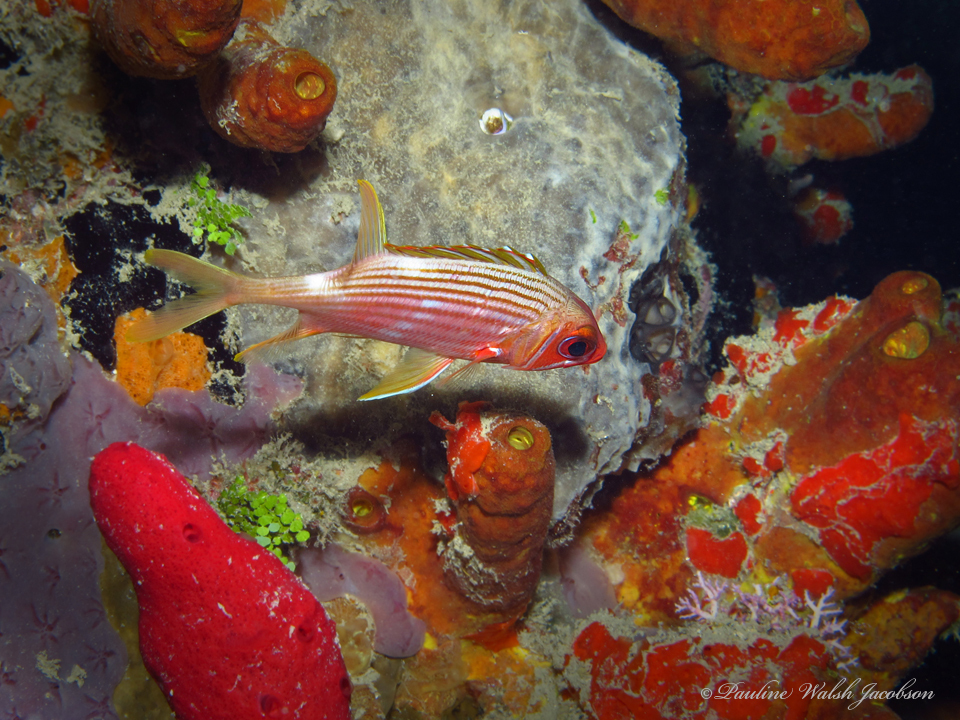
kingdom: Animalia
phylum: Chordata
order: Beryciformes
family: Holocentridae
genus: Holocentrus
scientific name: Holocentrus rufus
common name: Longspine squirrelfish
